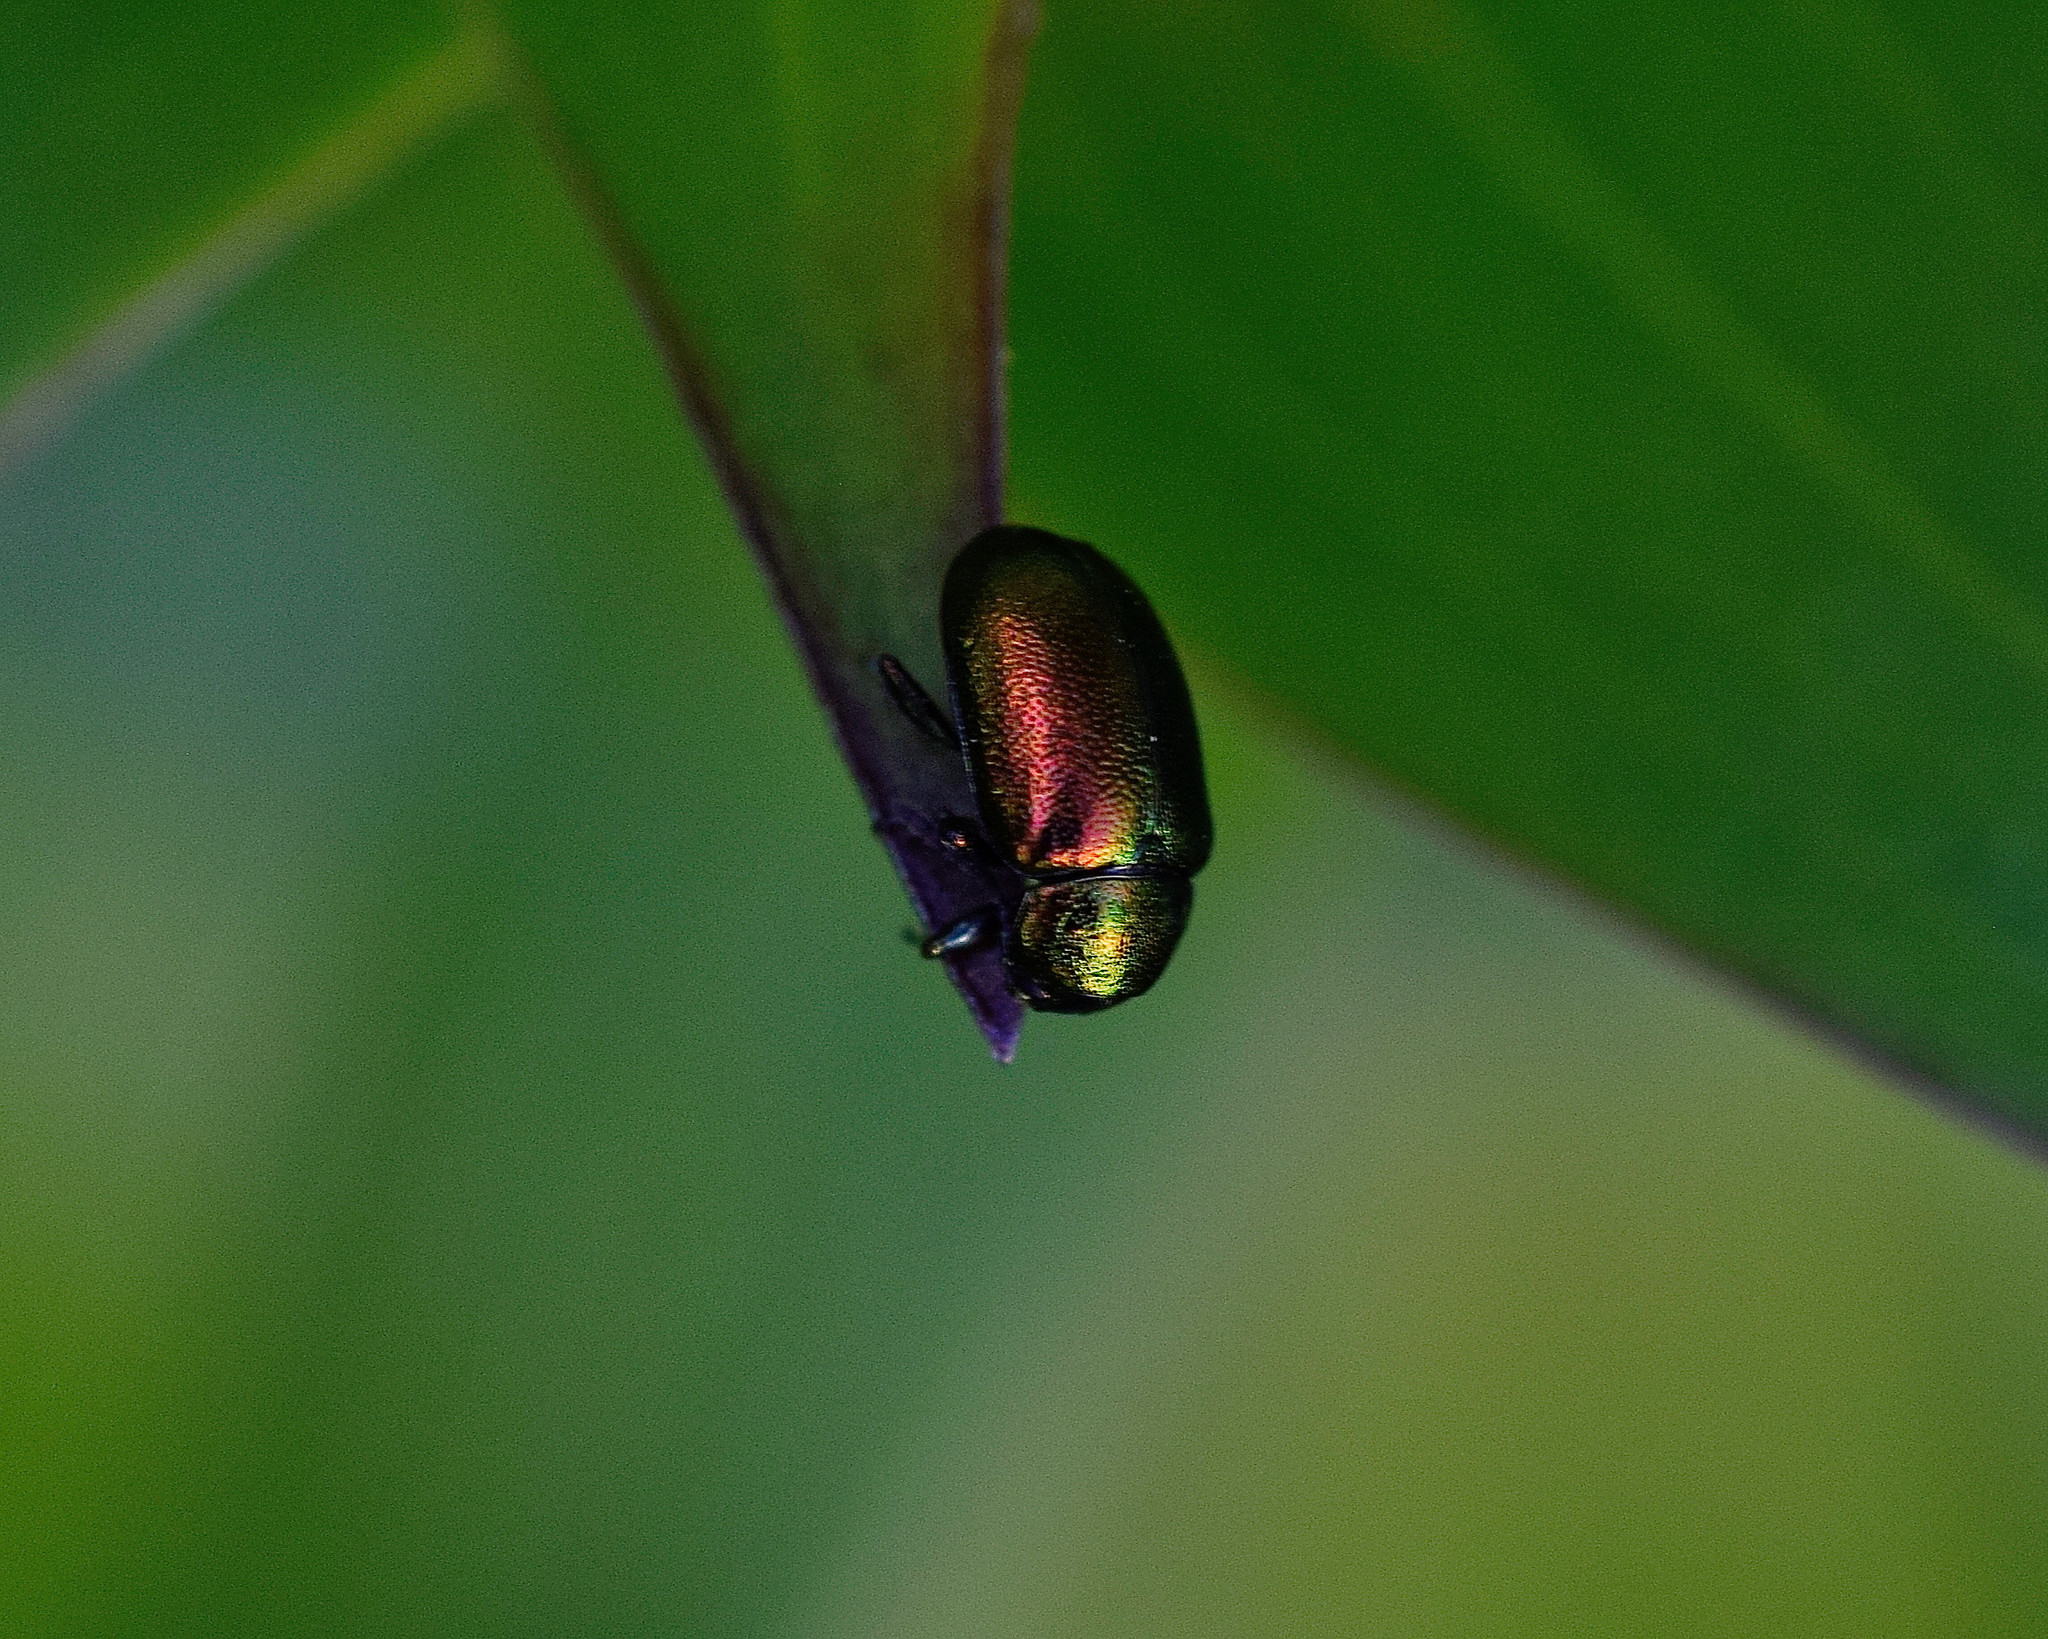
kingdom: Animalia
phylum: Arthropoda
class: Insecta
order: Coleoptera
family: Chrysomelidae
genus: Gastrophysa
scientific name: Gastrophysa viridula
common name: Green dock beetle
